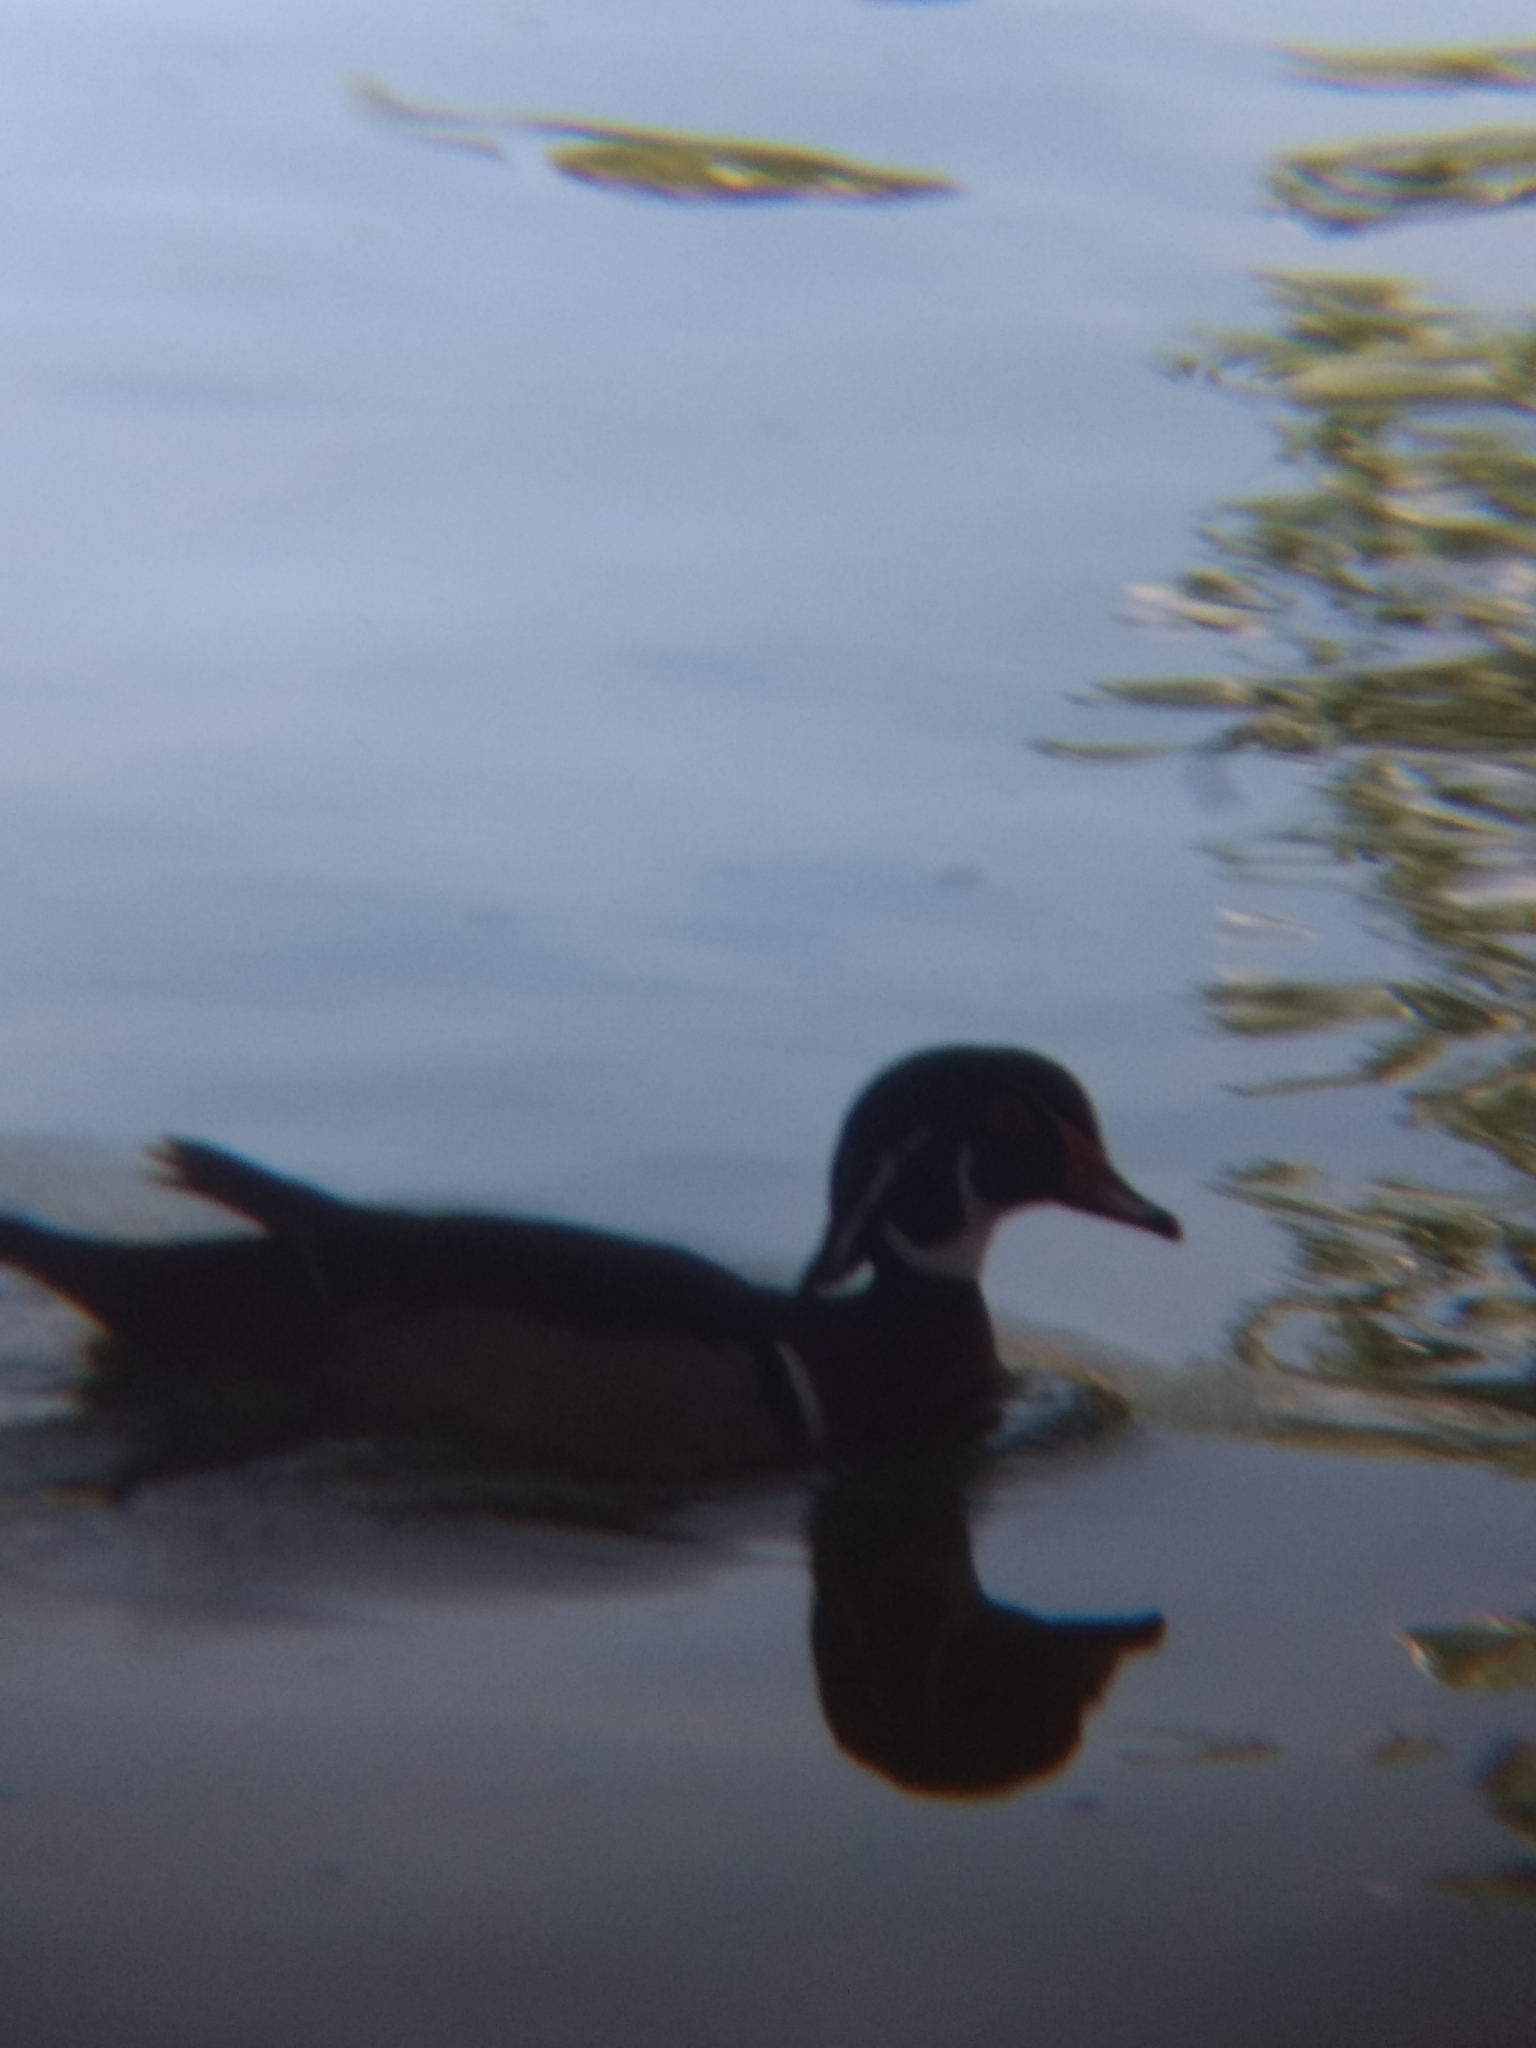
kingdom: Animalia
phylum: Chordata
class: Aves
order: Anseriformes
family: Anatidae
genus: Aix
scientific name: Aix sponsa
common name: Wood duck
